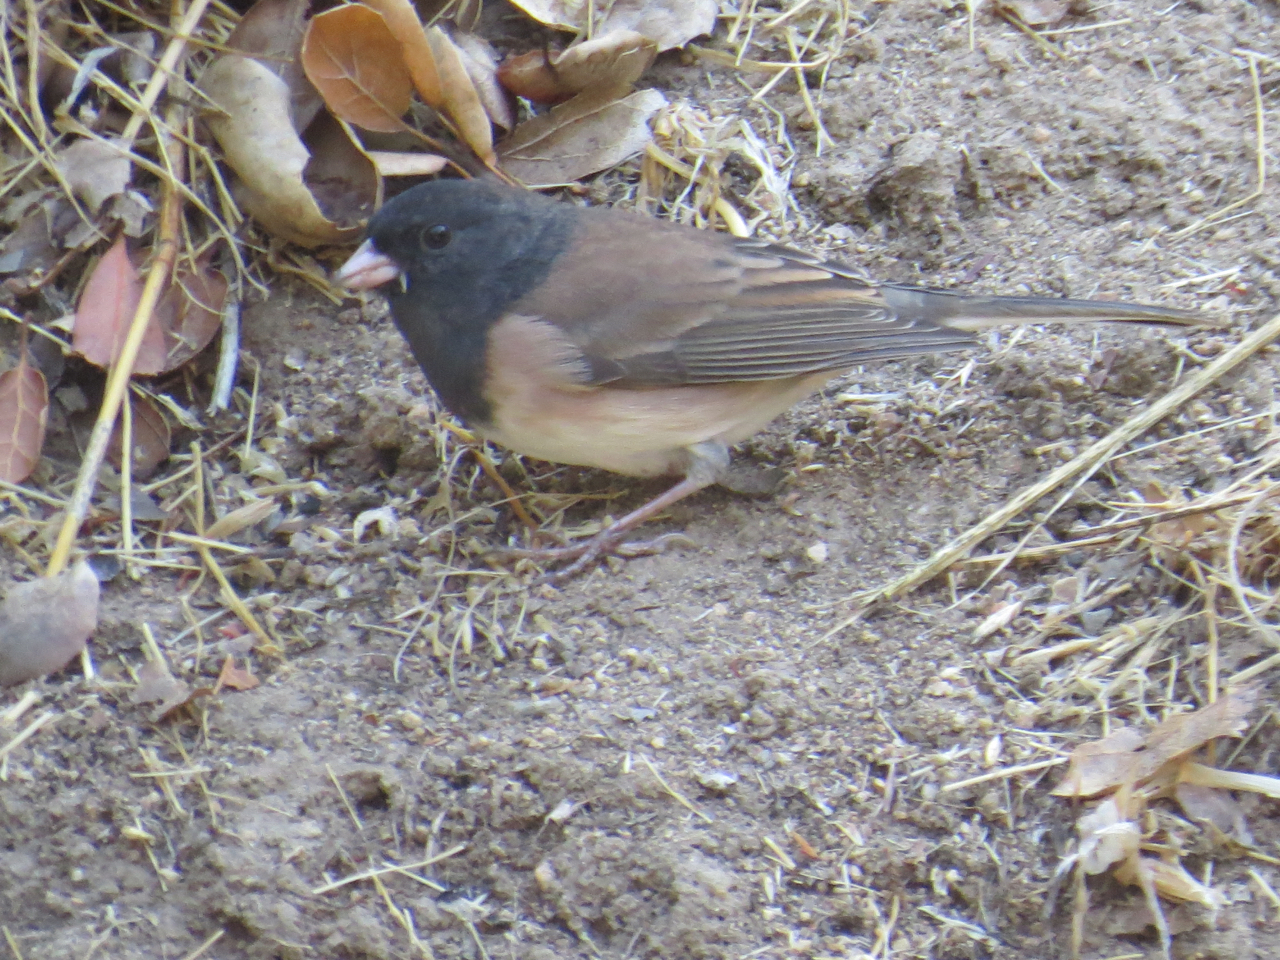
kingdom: Animalia
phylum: Chordata
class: Aves
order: Passeriformes
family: Passerellidae
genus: Junco
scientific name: Junco hyemalis
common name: Dark-eyed junco
